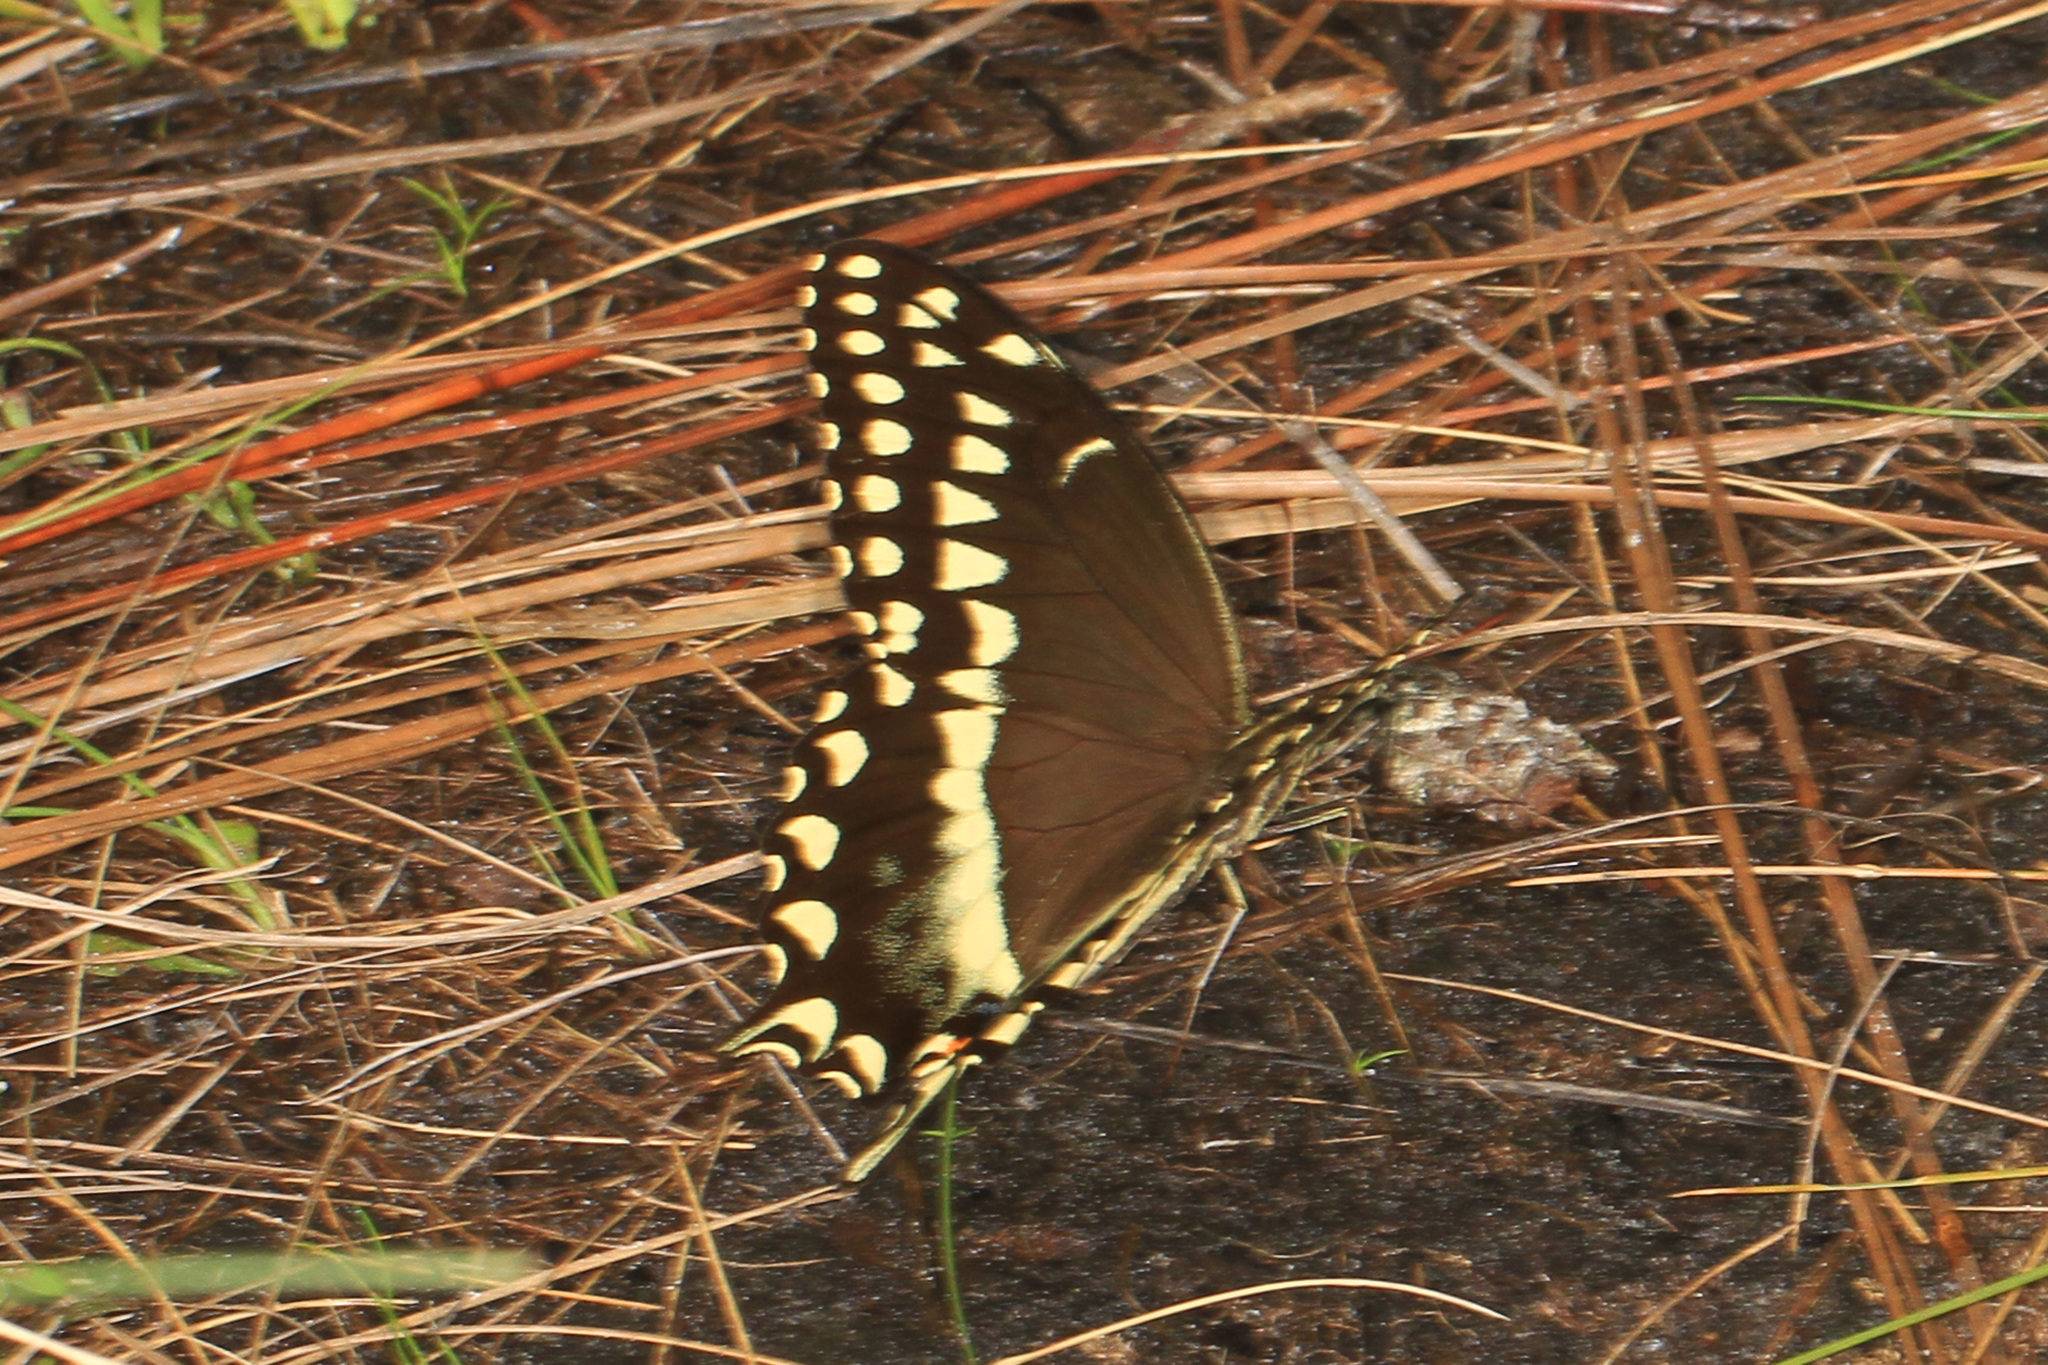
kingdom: Animalia
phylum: Arthropoda
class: Insecta
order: Lepidoptera
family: Papilionidae
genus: Papilio
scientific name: Papilio palamedes
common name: Palamedes swallowtail
